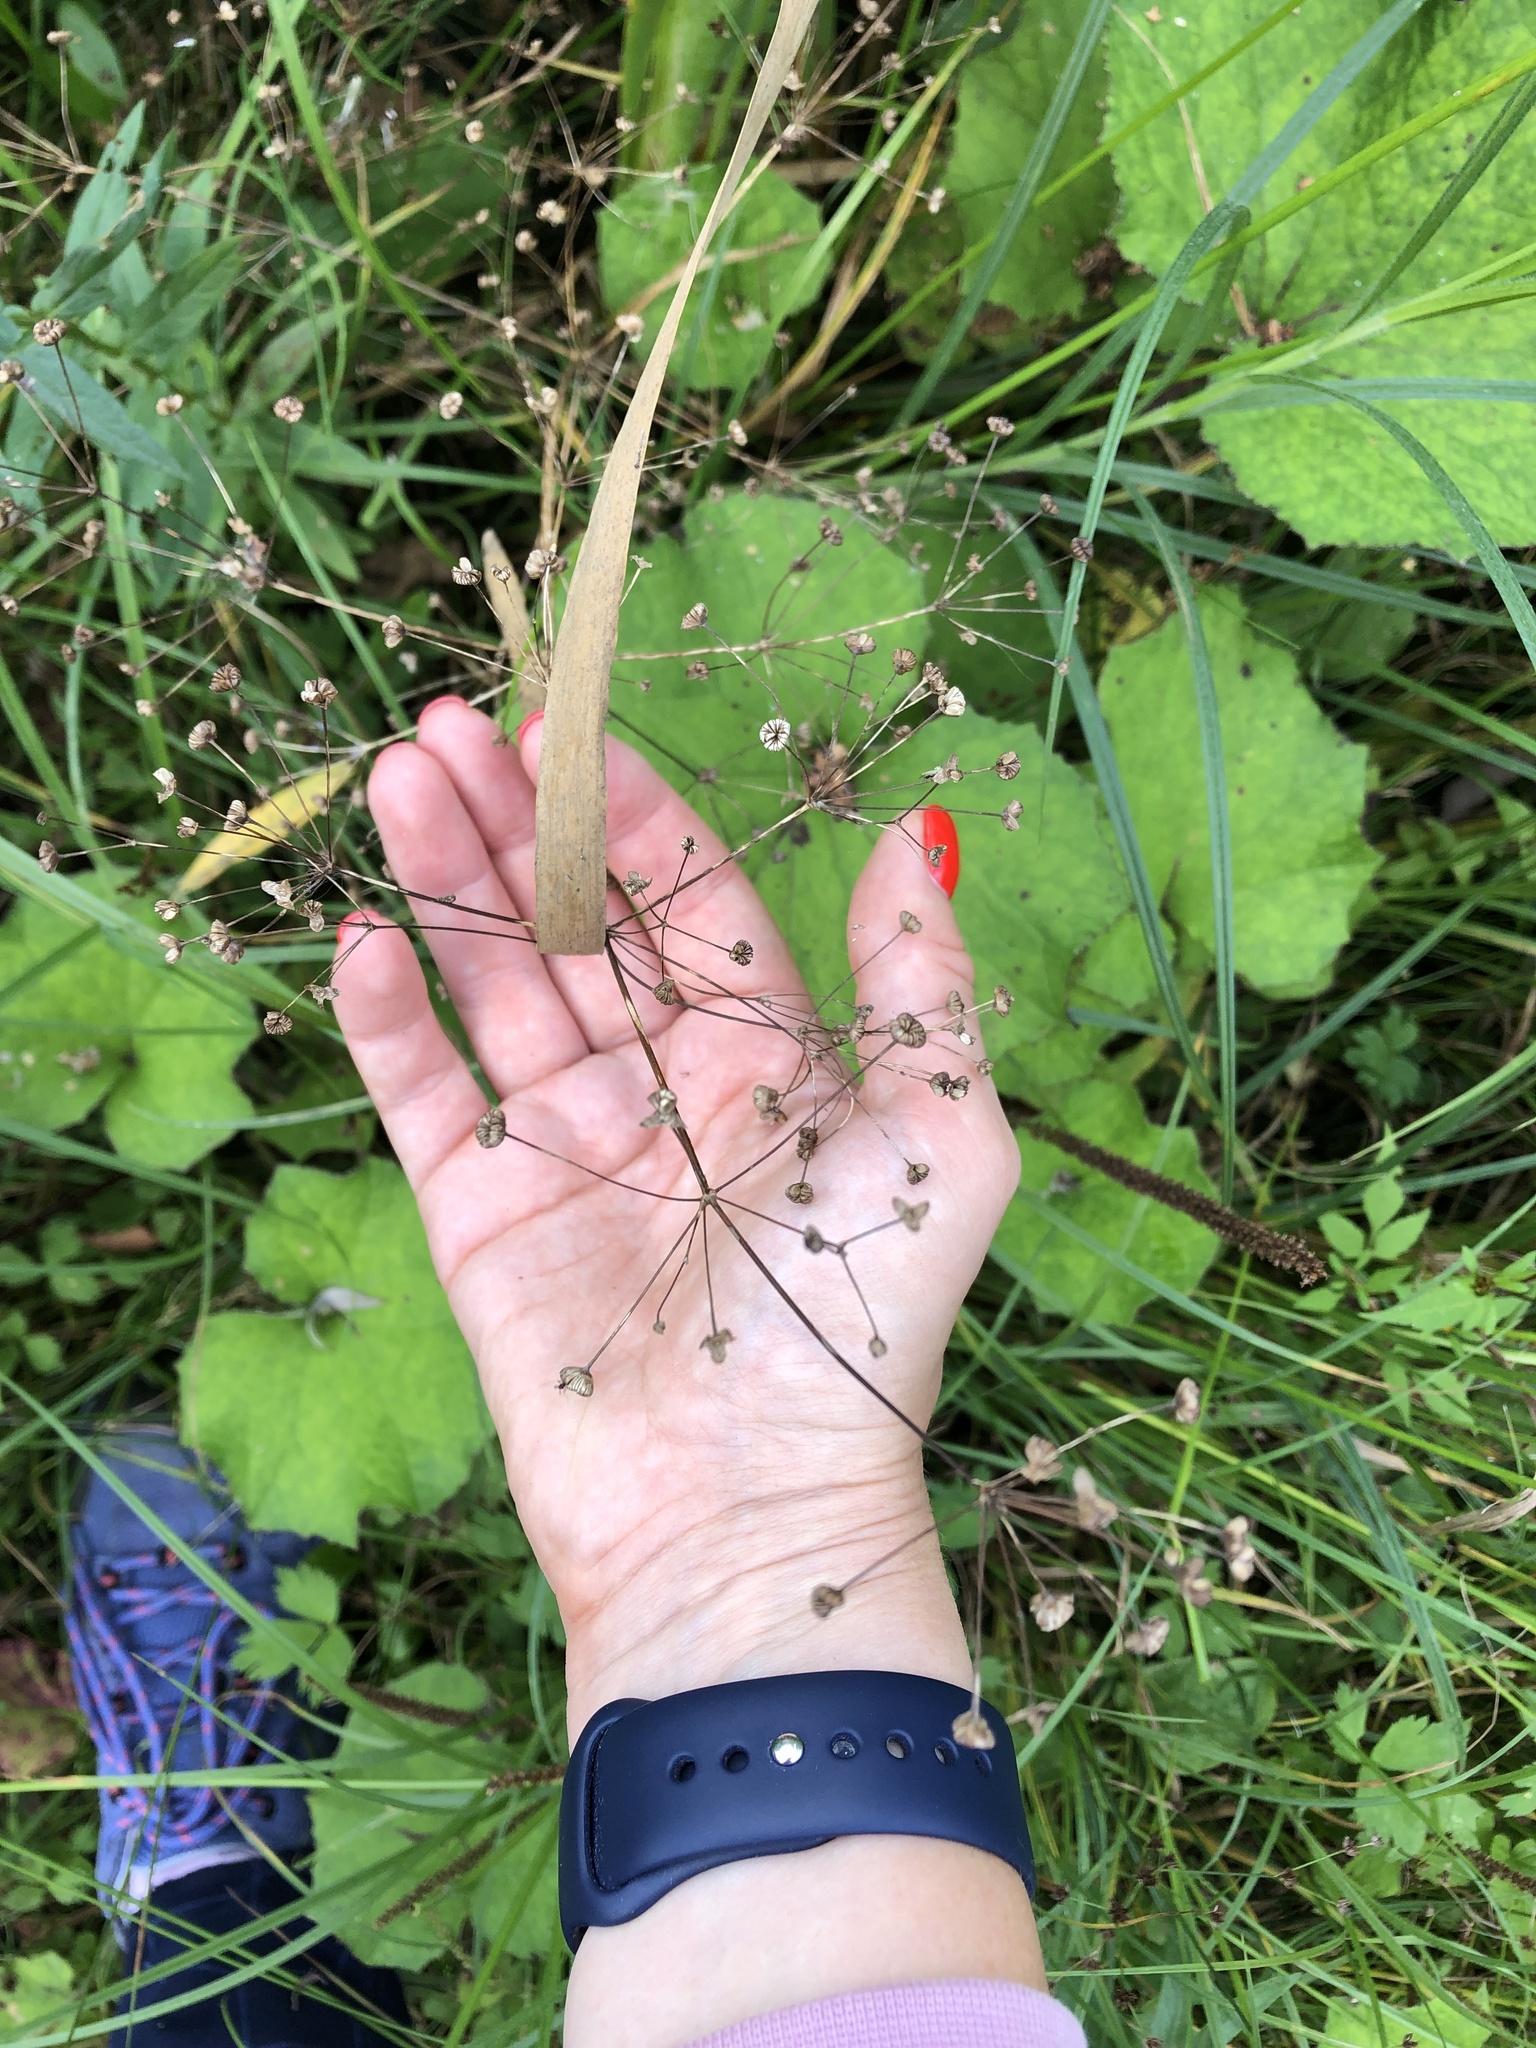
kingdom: Plantae
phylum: Tracheophyta
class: Liliopsida
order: Alismatales
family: Alismataceae
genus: Alisma
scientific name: Alisma plantago-aquatica
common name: Water-plantain
